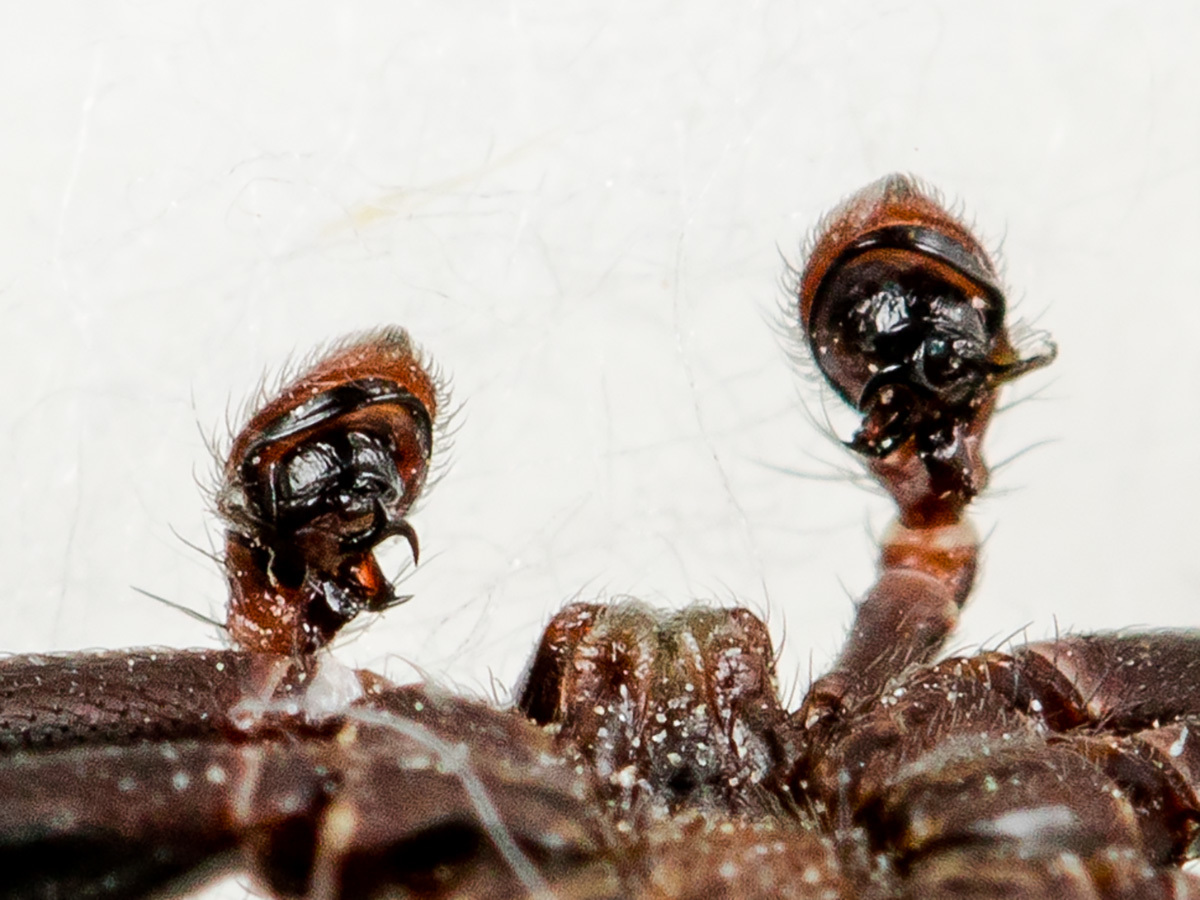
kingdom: Animalia
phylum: Arthropoda
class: Arachnida
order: Araneae
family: Thomisidae
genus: Xysticus
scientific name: Xysticus pseudocristatus
